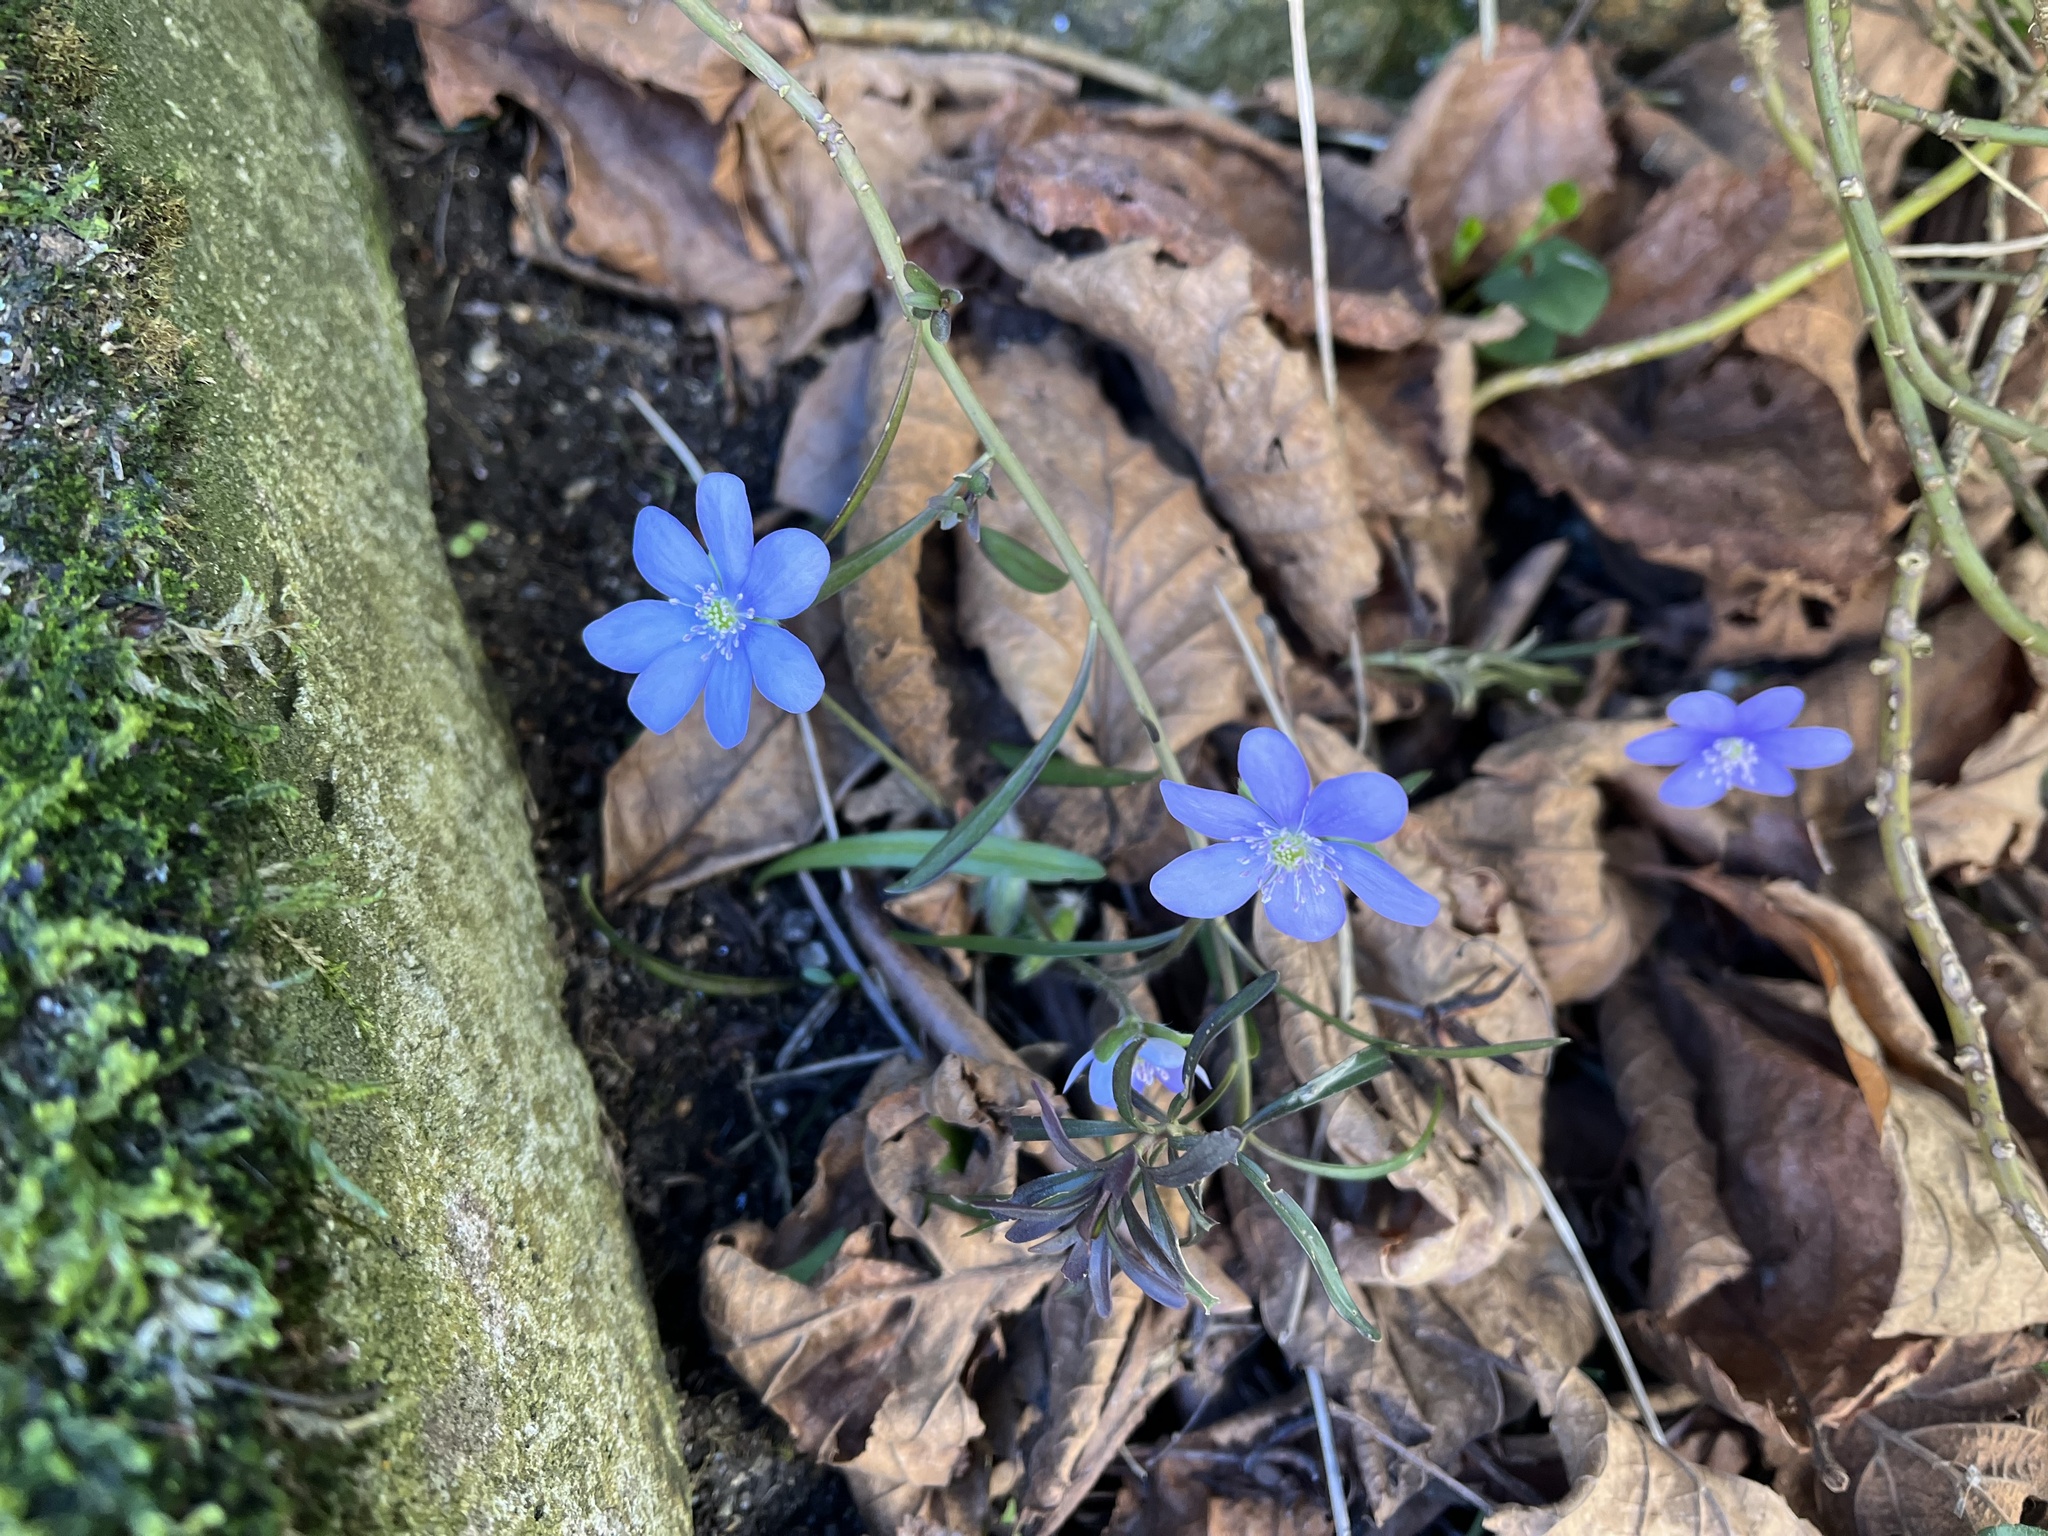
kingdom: Plantae
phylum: Tracheophyta
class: Magnoliopsida
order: Ranunculales
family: Ranunculaceae
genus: Hepatica
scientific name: Hepatica nobilis
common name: Liverleaf
